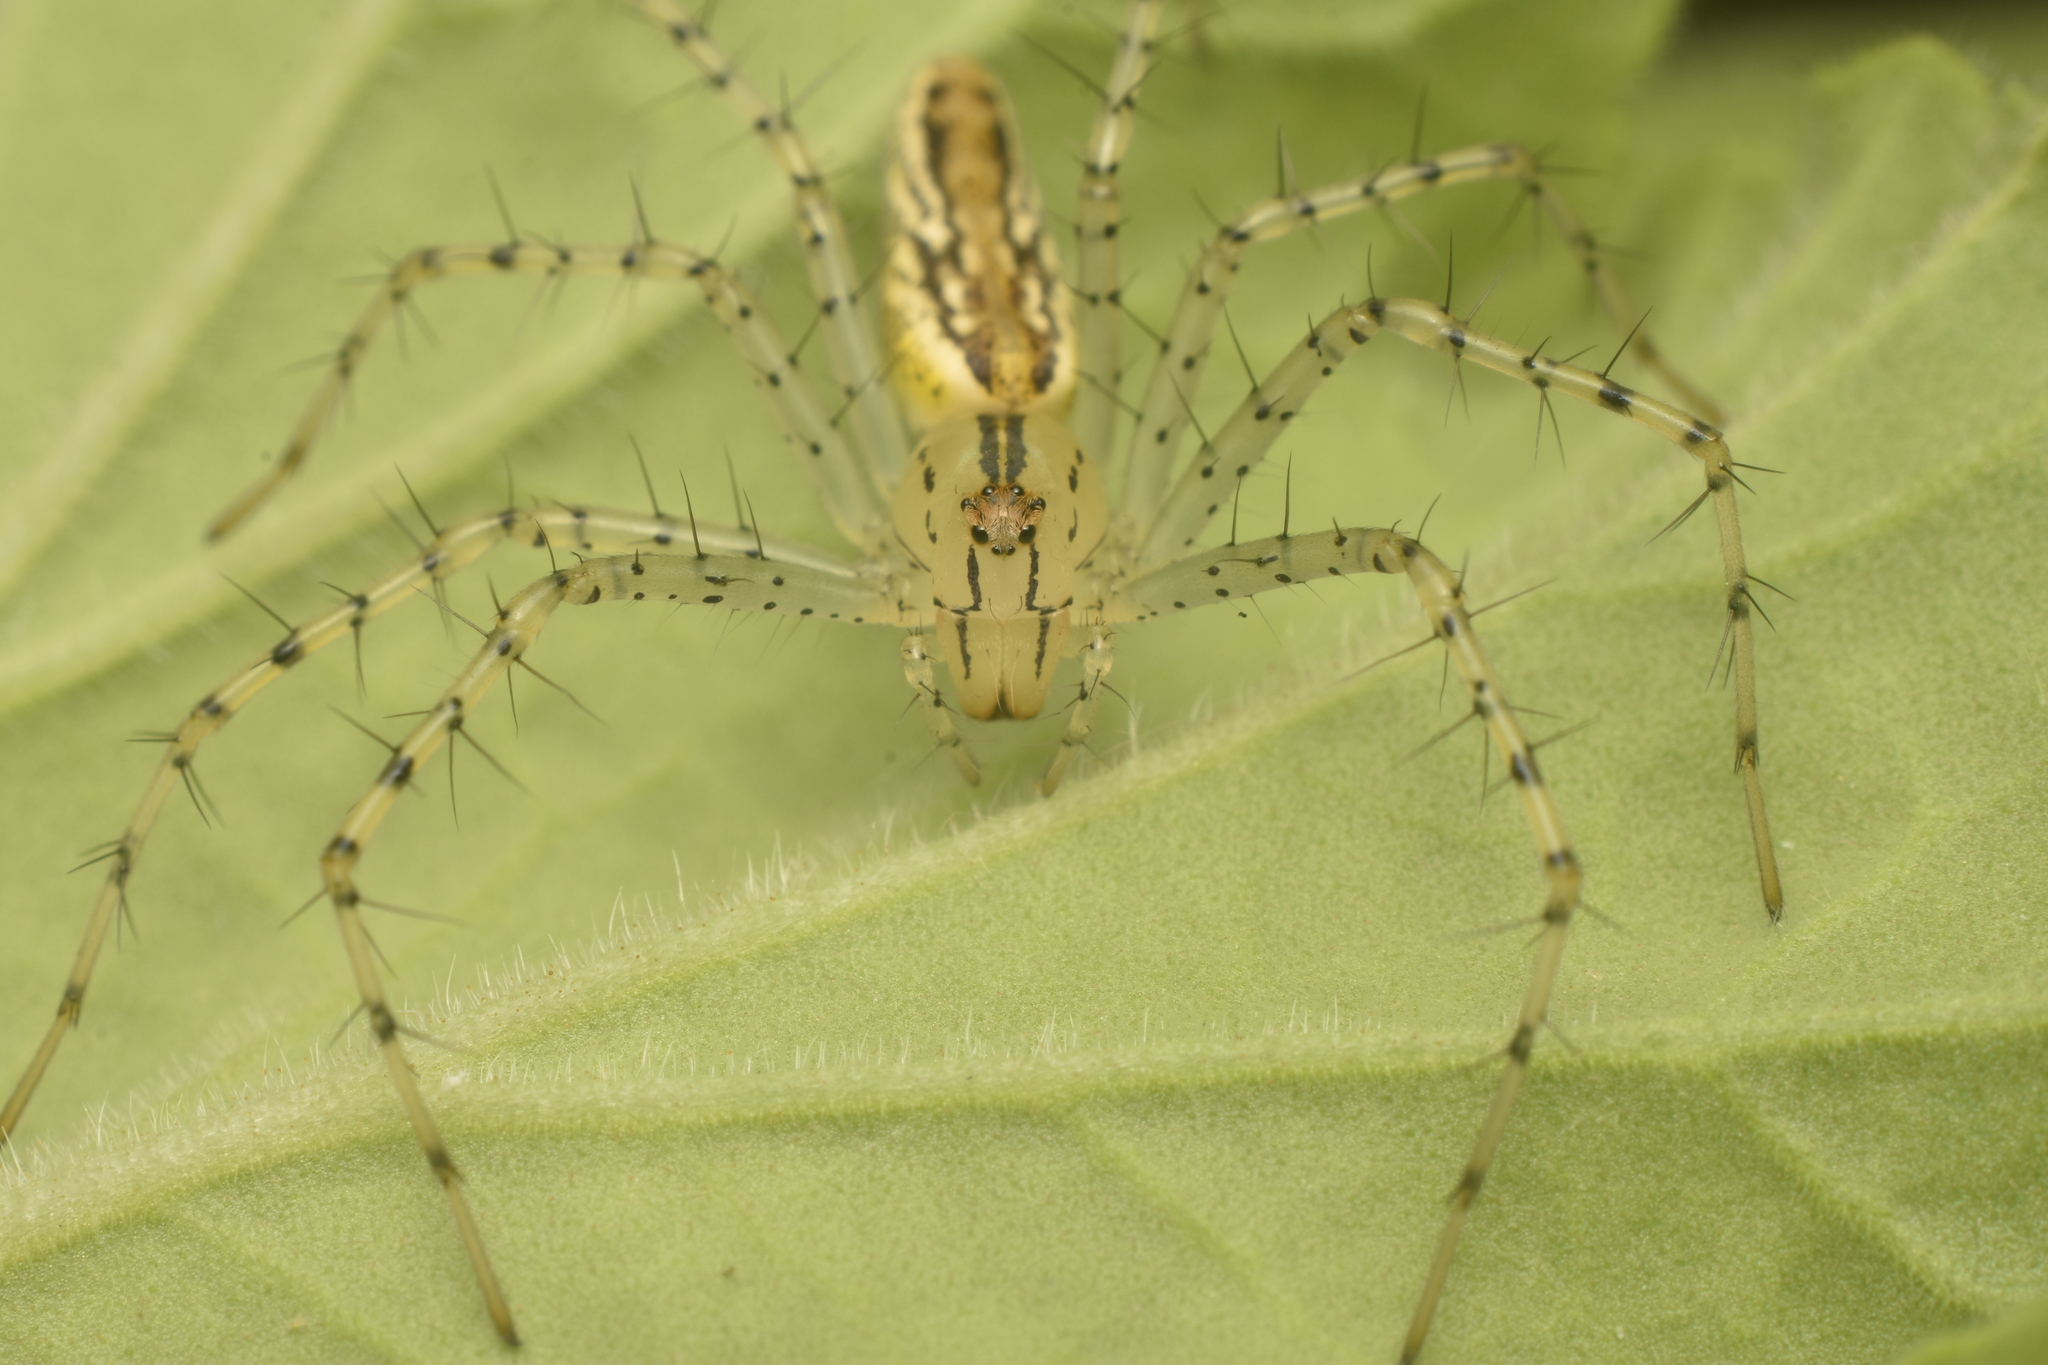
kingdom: Animalia
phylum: Arthropoda
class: Arachnida
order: Araneae
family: Oxyopidae
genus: Peucetia
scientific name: Peucetia rubrolineata
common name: Lynx spiders
